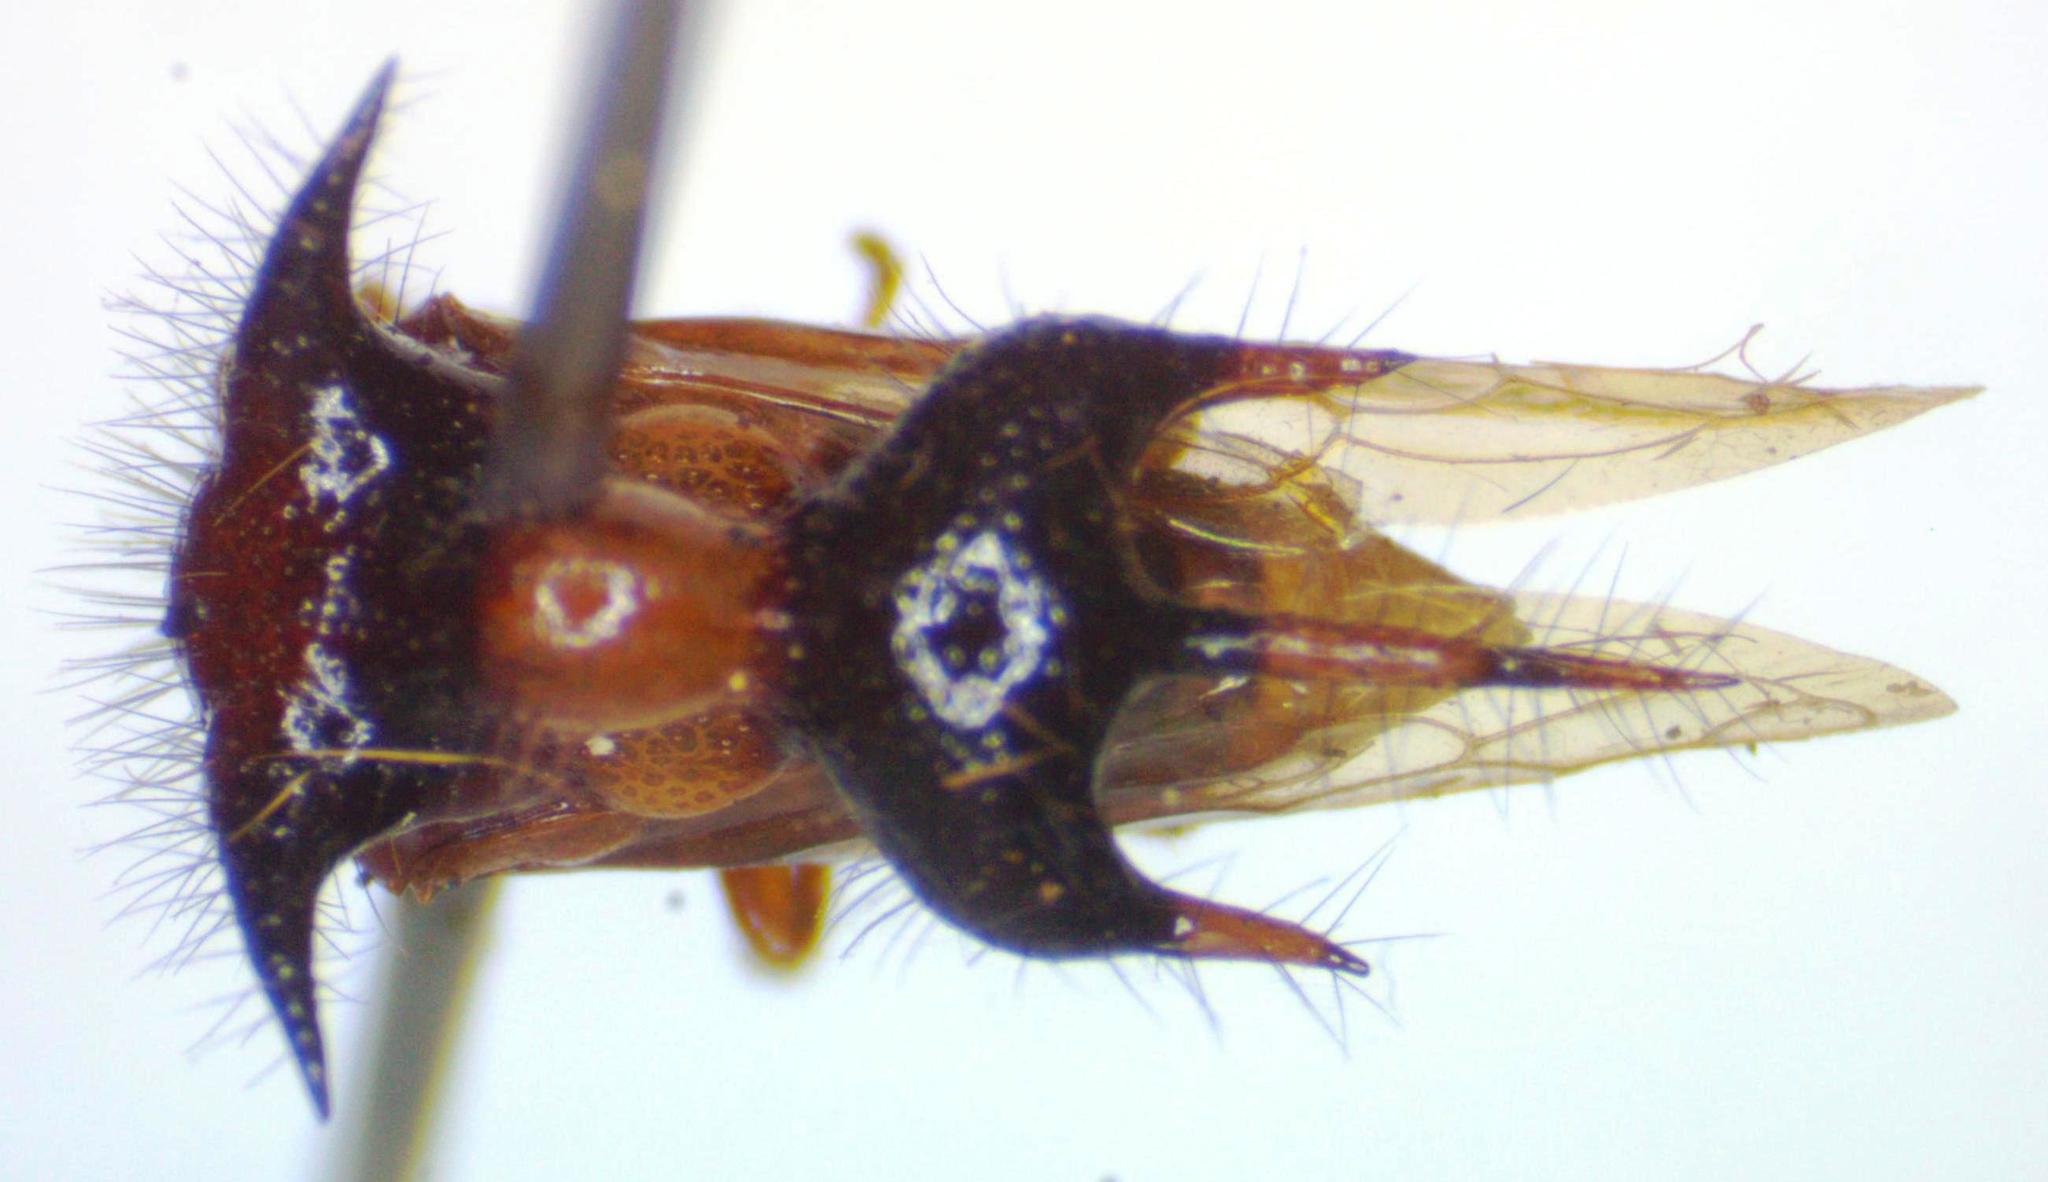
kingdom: Animalia
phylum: Arthropoda
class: Insecta
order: Hemiptera
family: Membracidae
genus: Poppea
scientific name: Poppea capricornis
